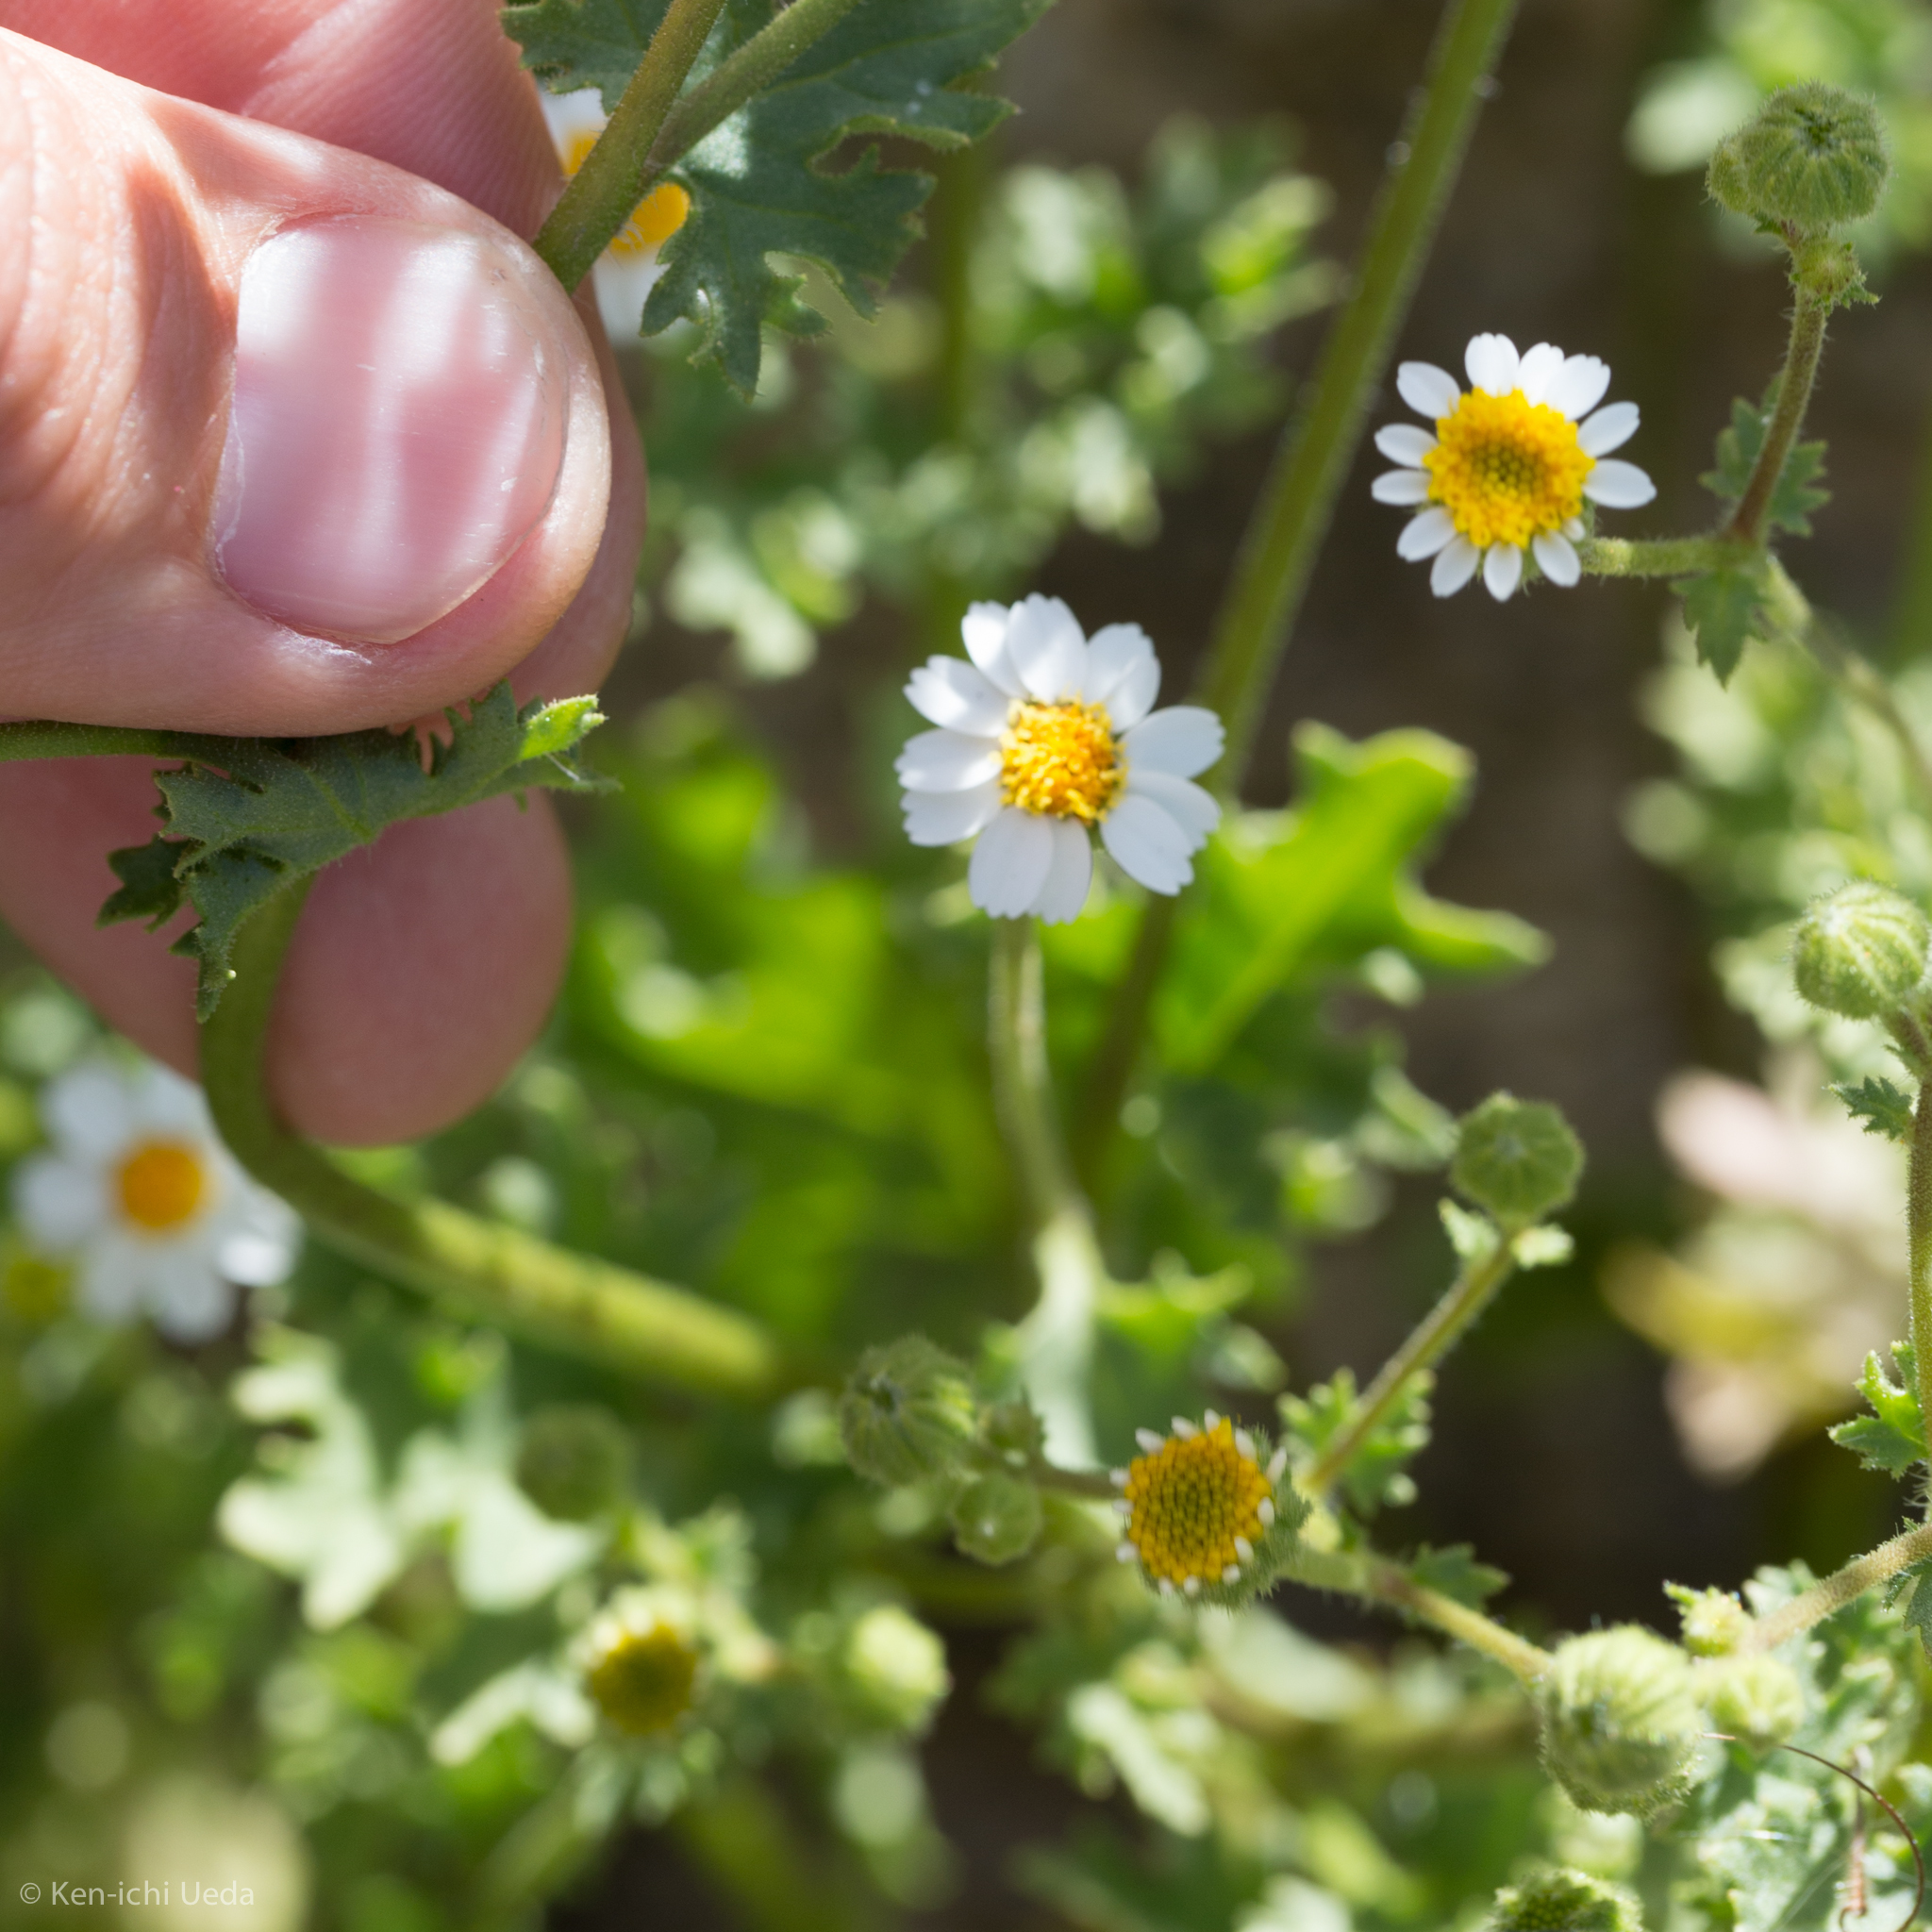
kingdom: Plantae
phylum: Tracheophyta
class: Magnoliopsida
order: Asterales
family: Asteraceae
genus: Laphamia
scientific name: Laphamia emoryi
